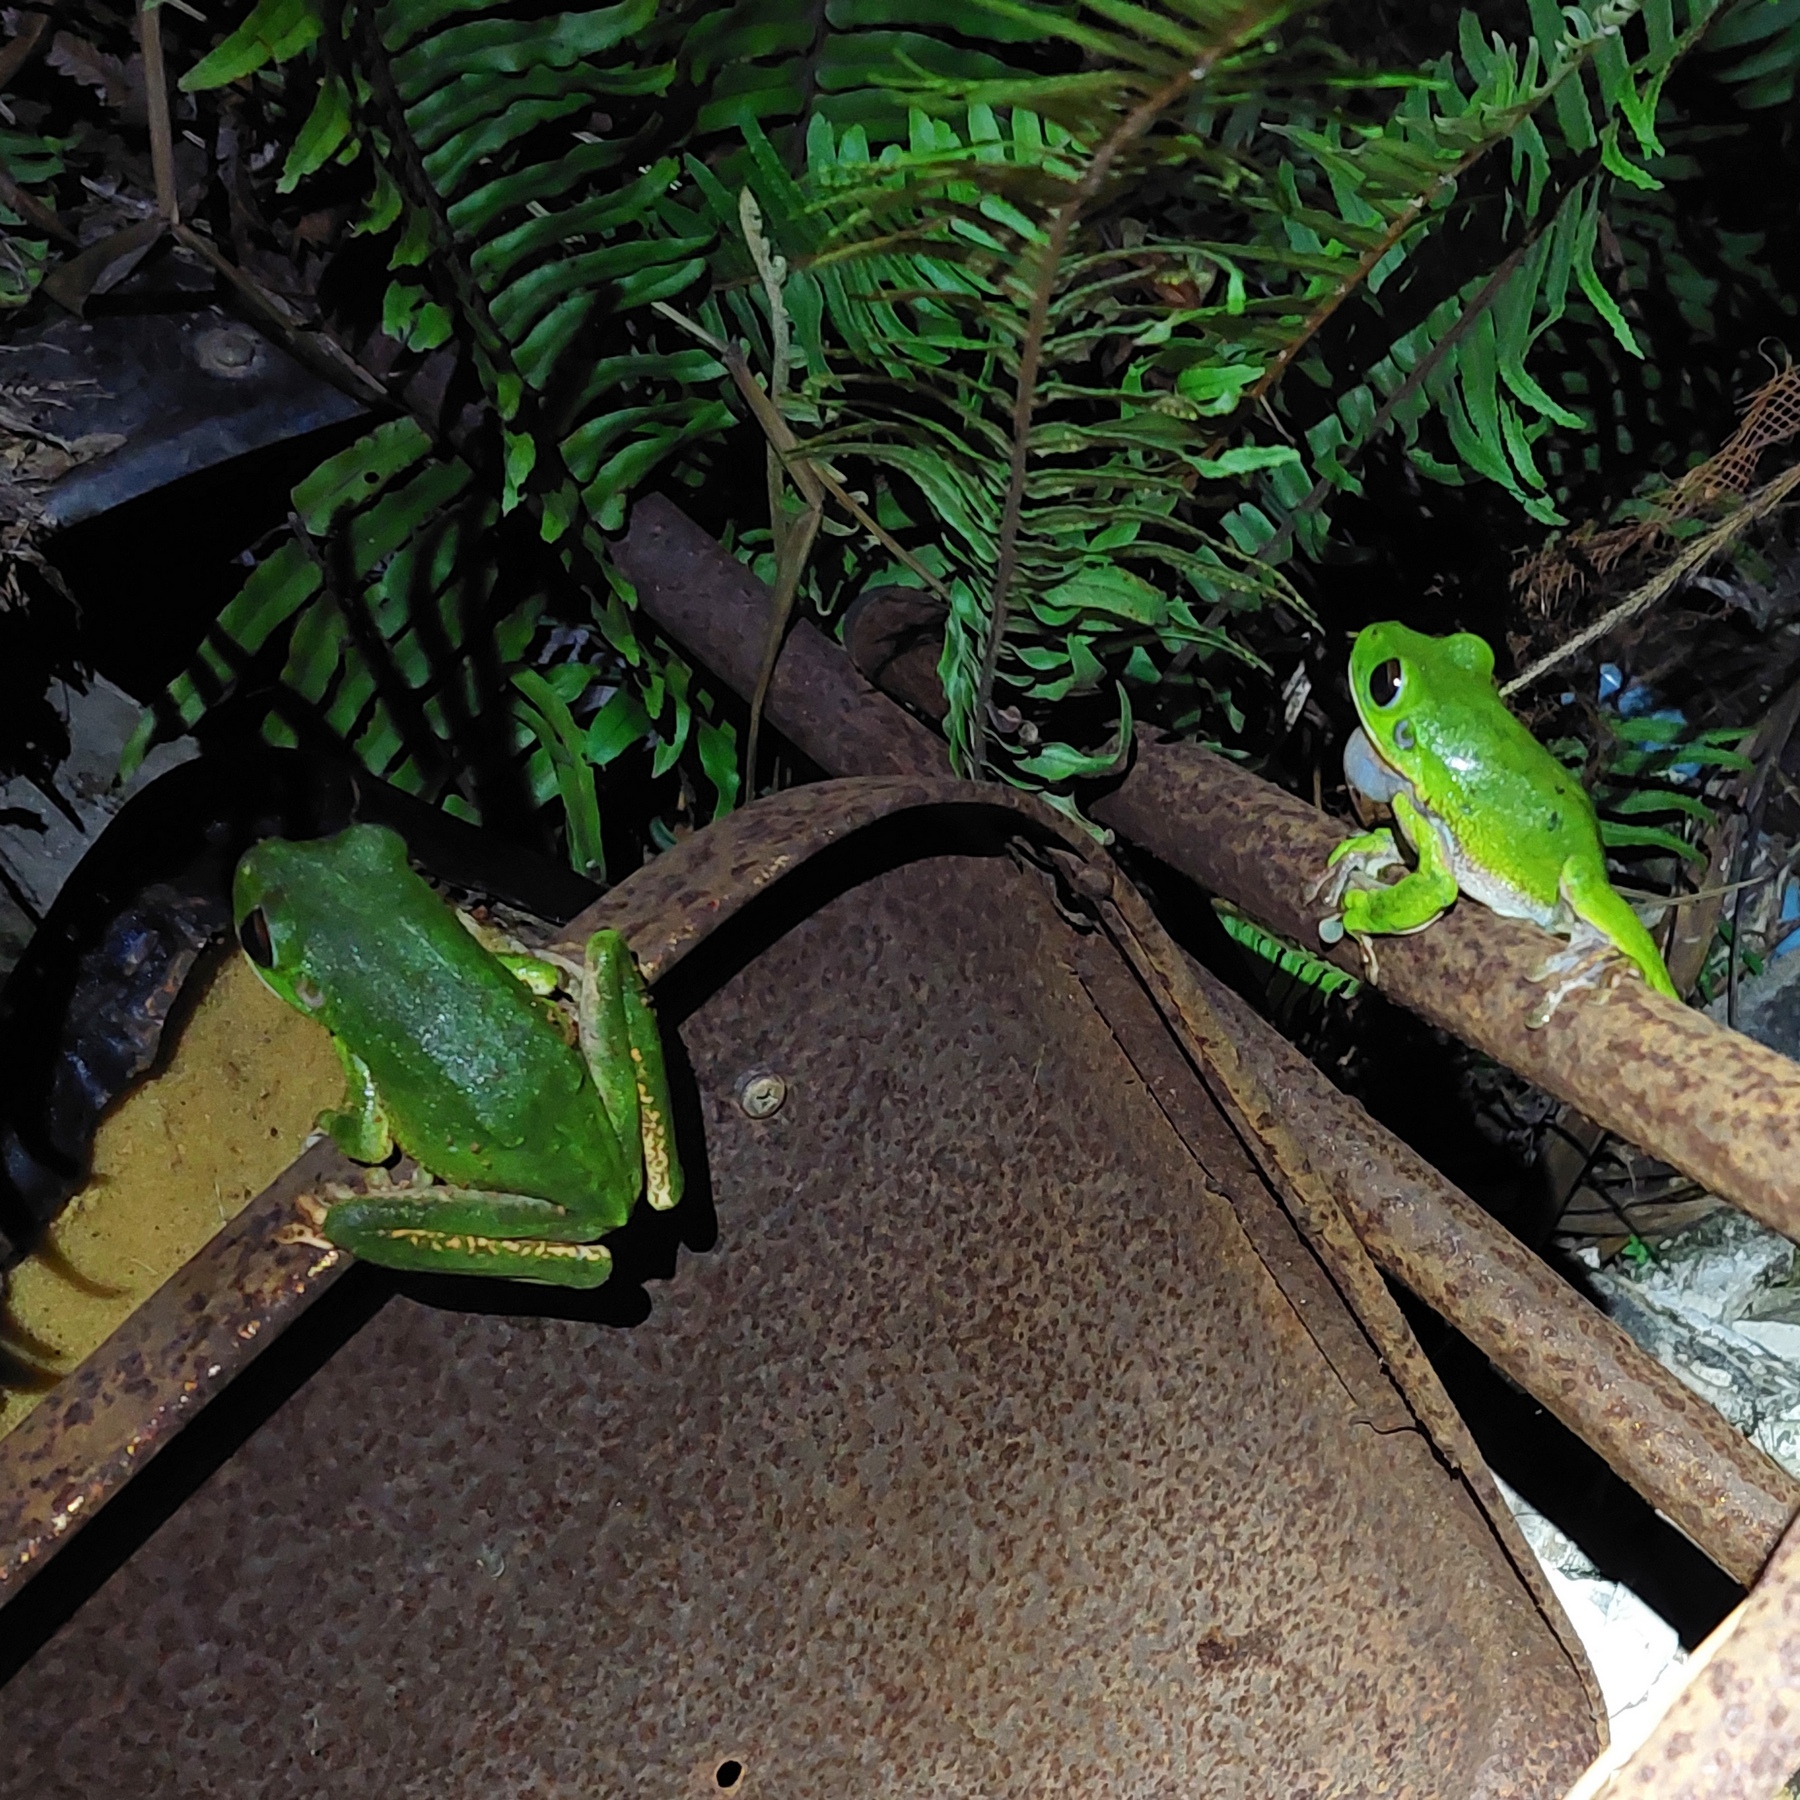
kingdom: Animalia
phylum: Chordata
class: Amphibia
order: Anura
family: Pelodryadidae
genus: Nyctimystes
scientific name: Nyctimystes
